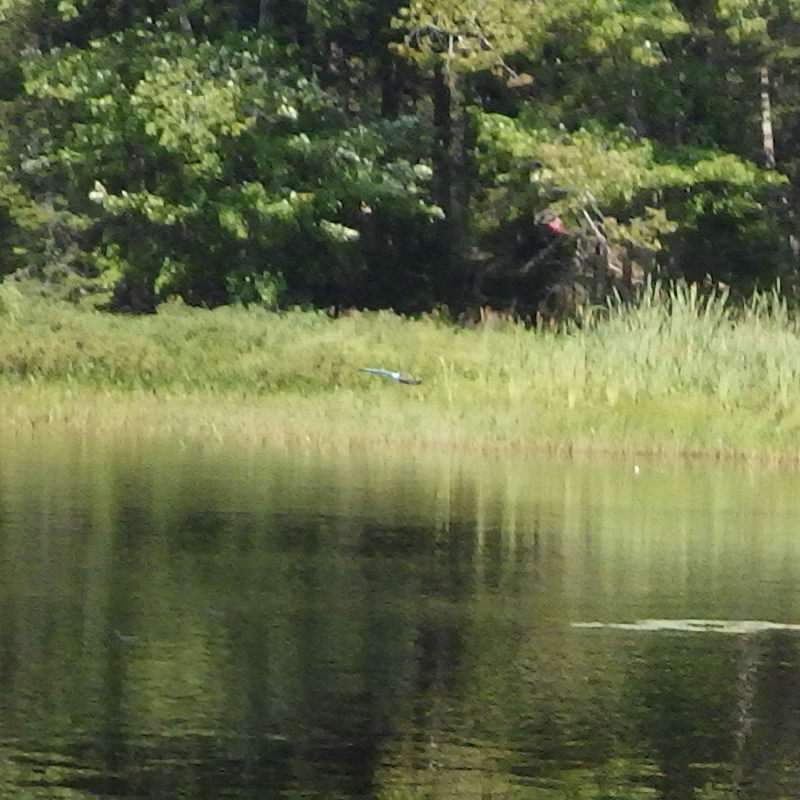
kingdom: Animalia
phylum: Arthropoda
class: Insecta
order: Odonata
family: Aeshnidae
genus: Anax
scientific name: Anax junius
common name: Common green darner
